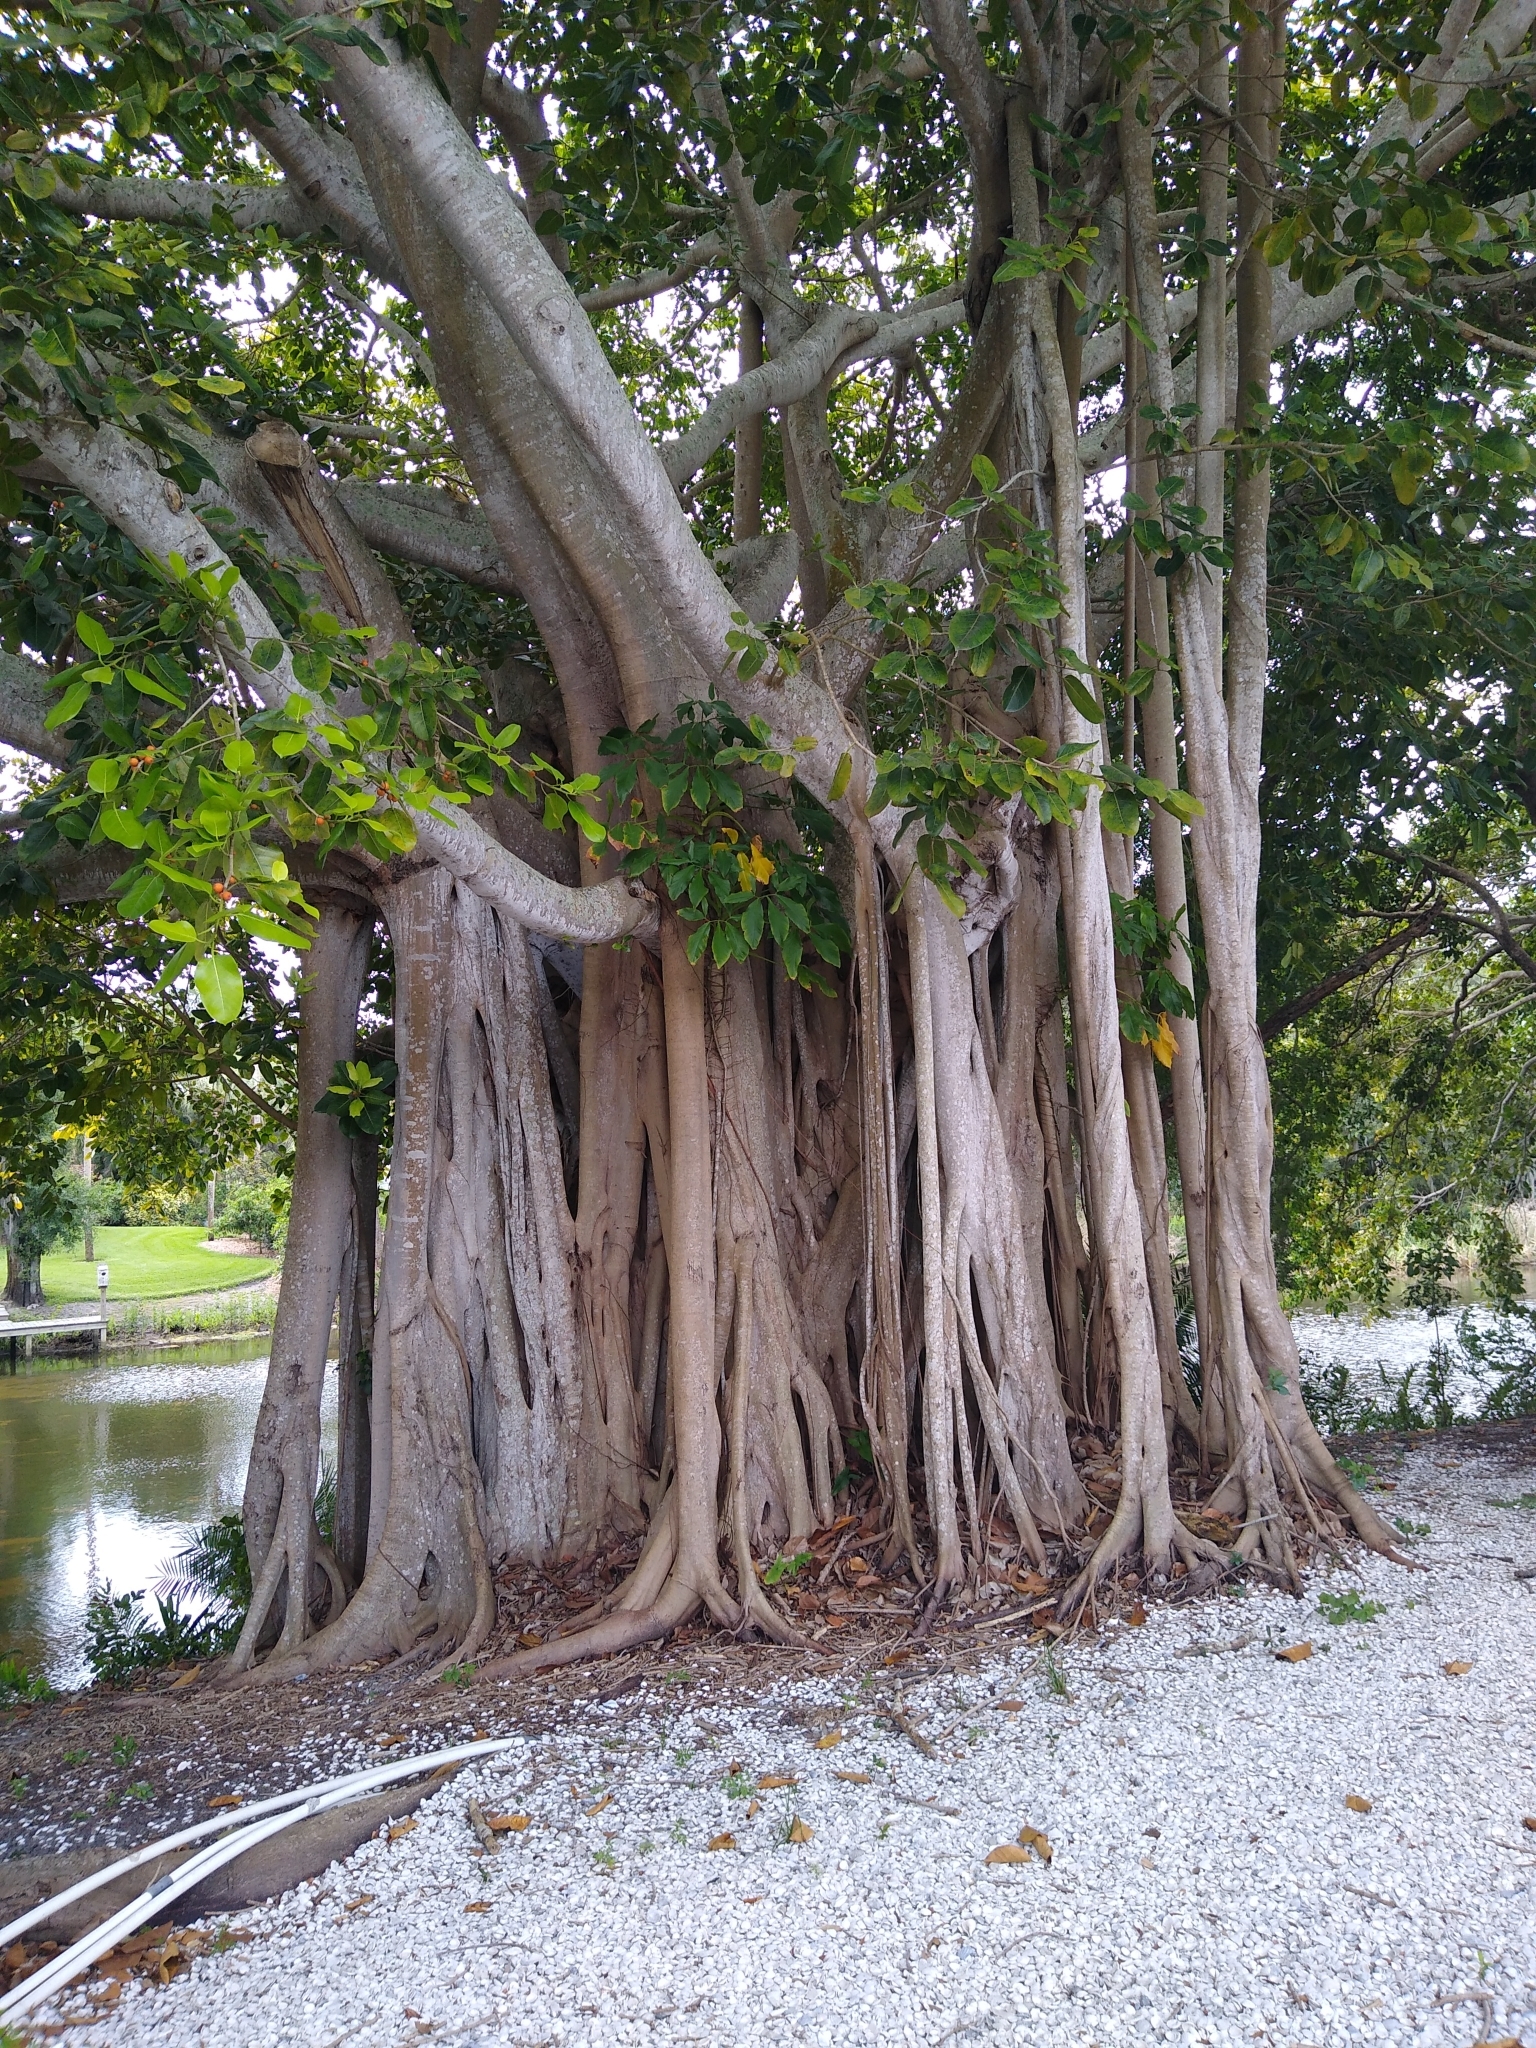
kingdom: Plantae
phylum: Tracheophyta
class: Magnoliopsida
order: Rosales
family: Moraceae
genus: Ficus
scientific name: Ficus aurea
